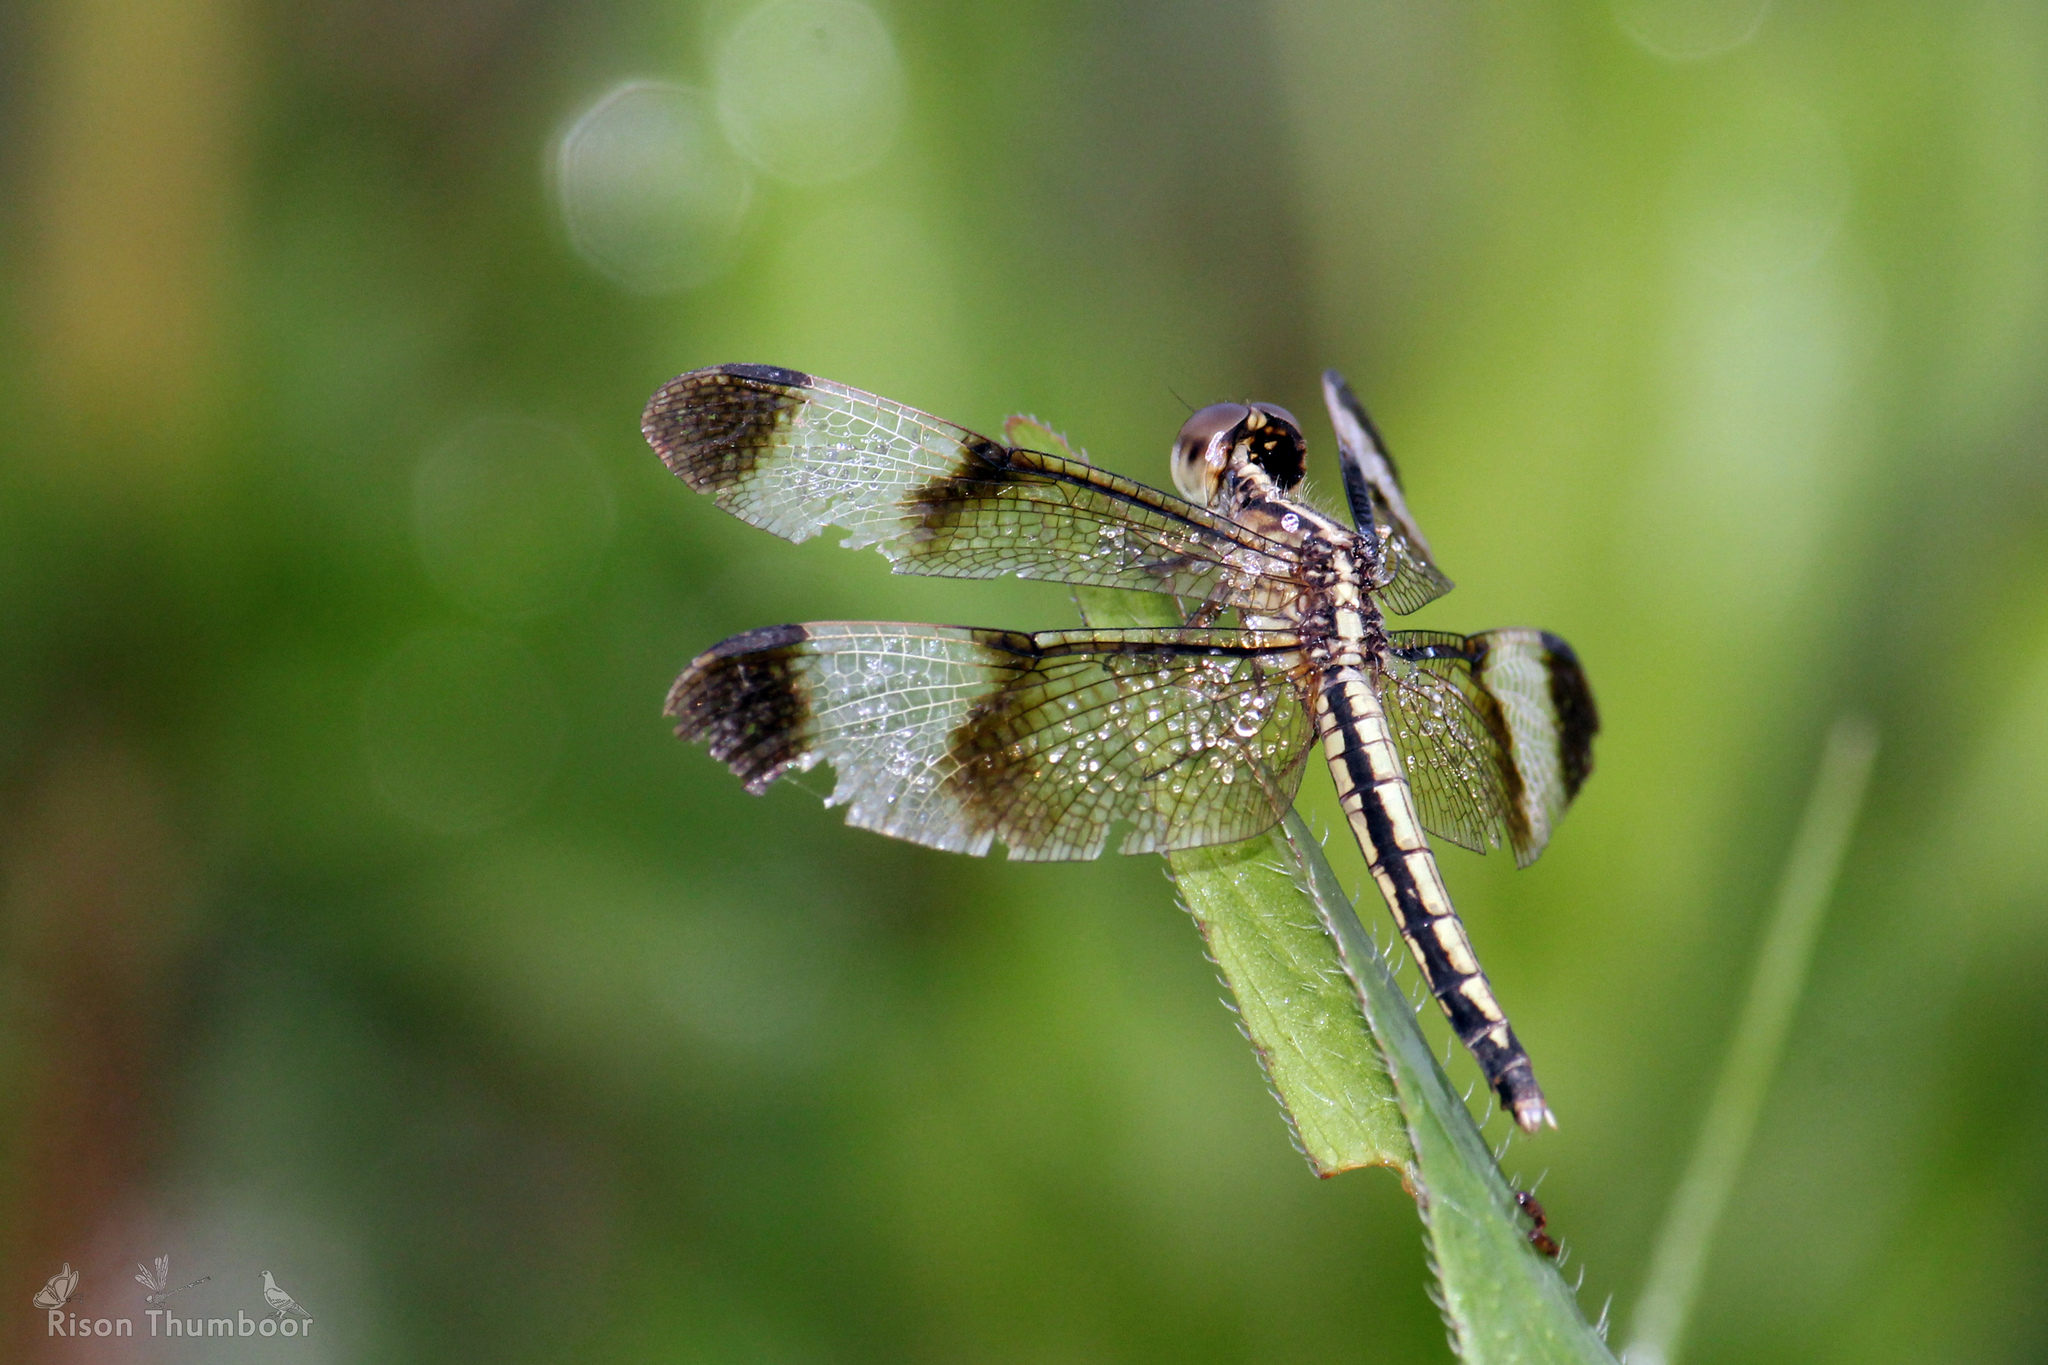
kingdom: Animalia
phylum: Arthropoda
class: Insecta
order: Odonata
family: Libellulidae
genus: Neurothemis
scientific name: Neurothemis tullia
